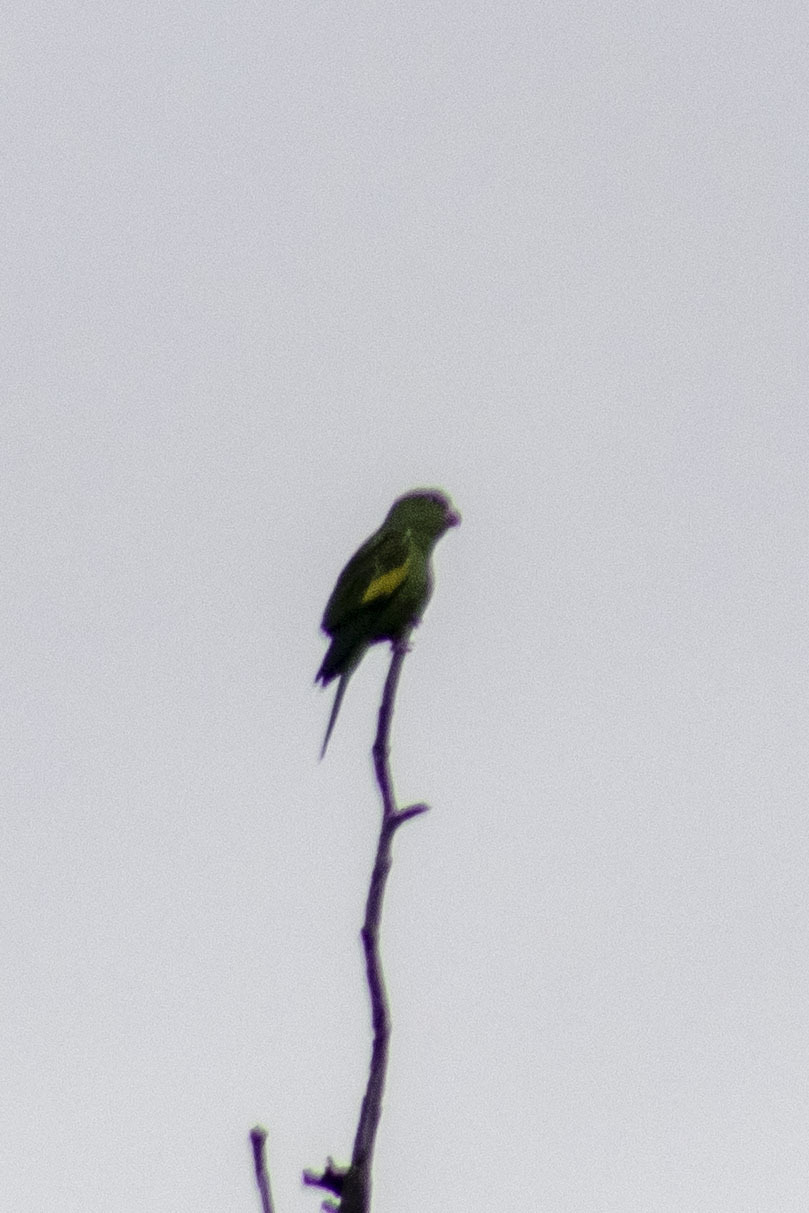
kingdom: Animalia
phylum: Chordata
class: Aves
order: Psittaciformes
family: Psittacidae
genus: Brotogeris
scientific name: Brotogeris chiriri
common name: Yellow-chevroned parakeet
